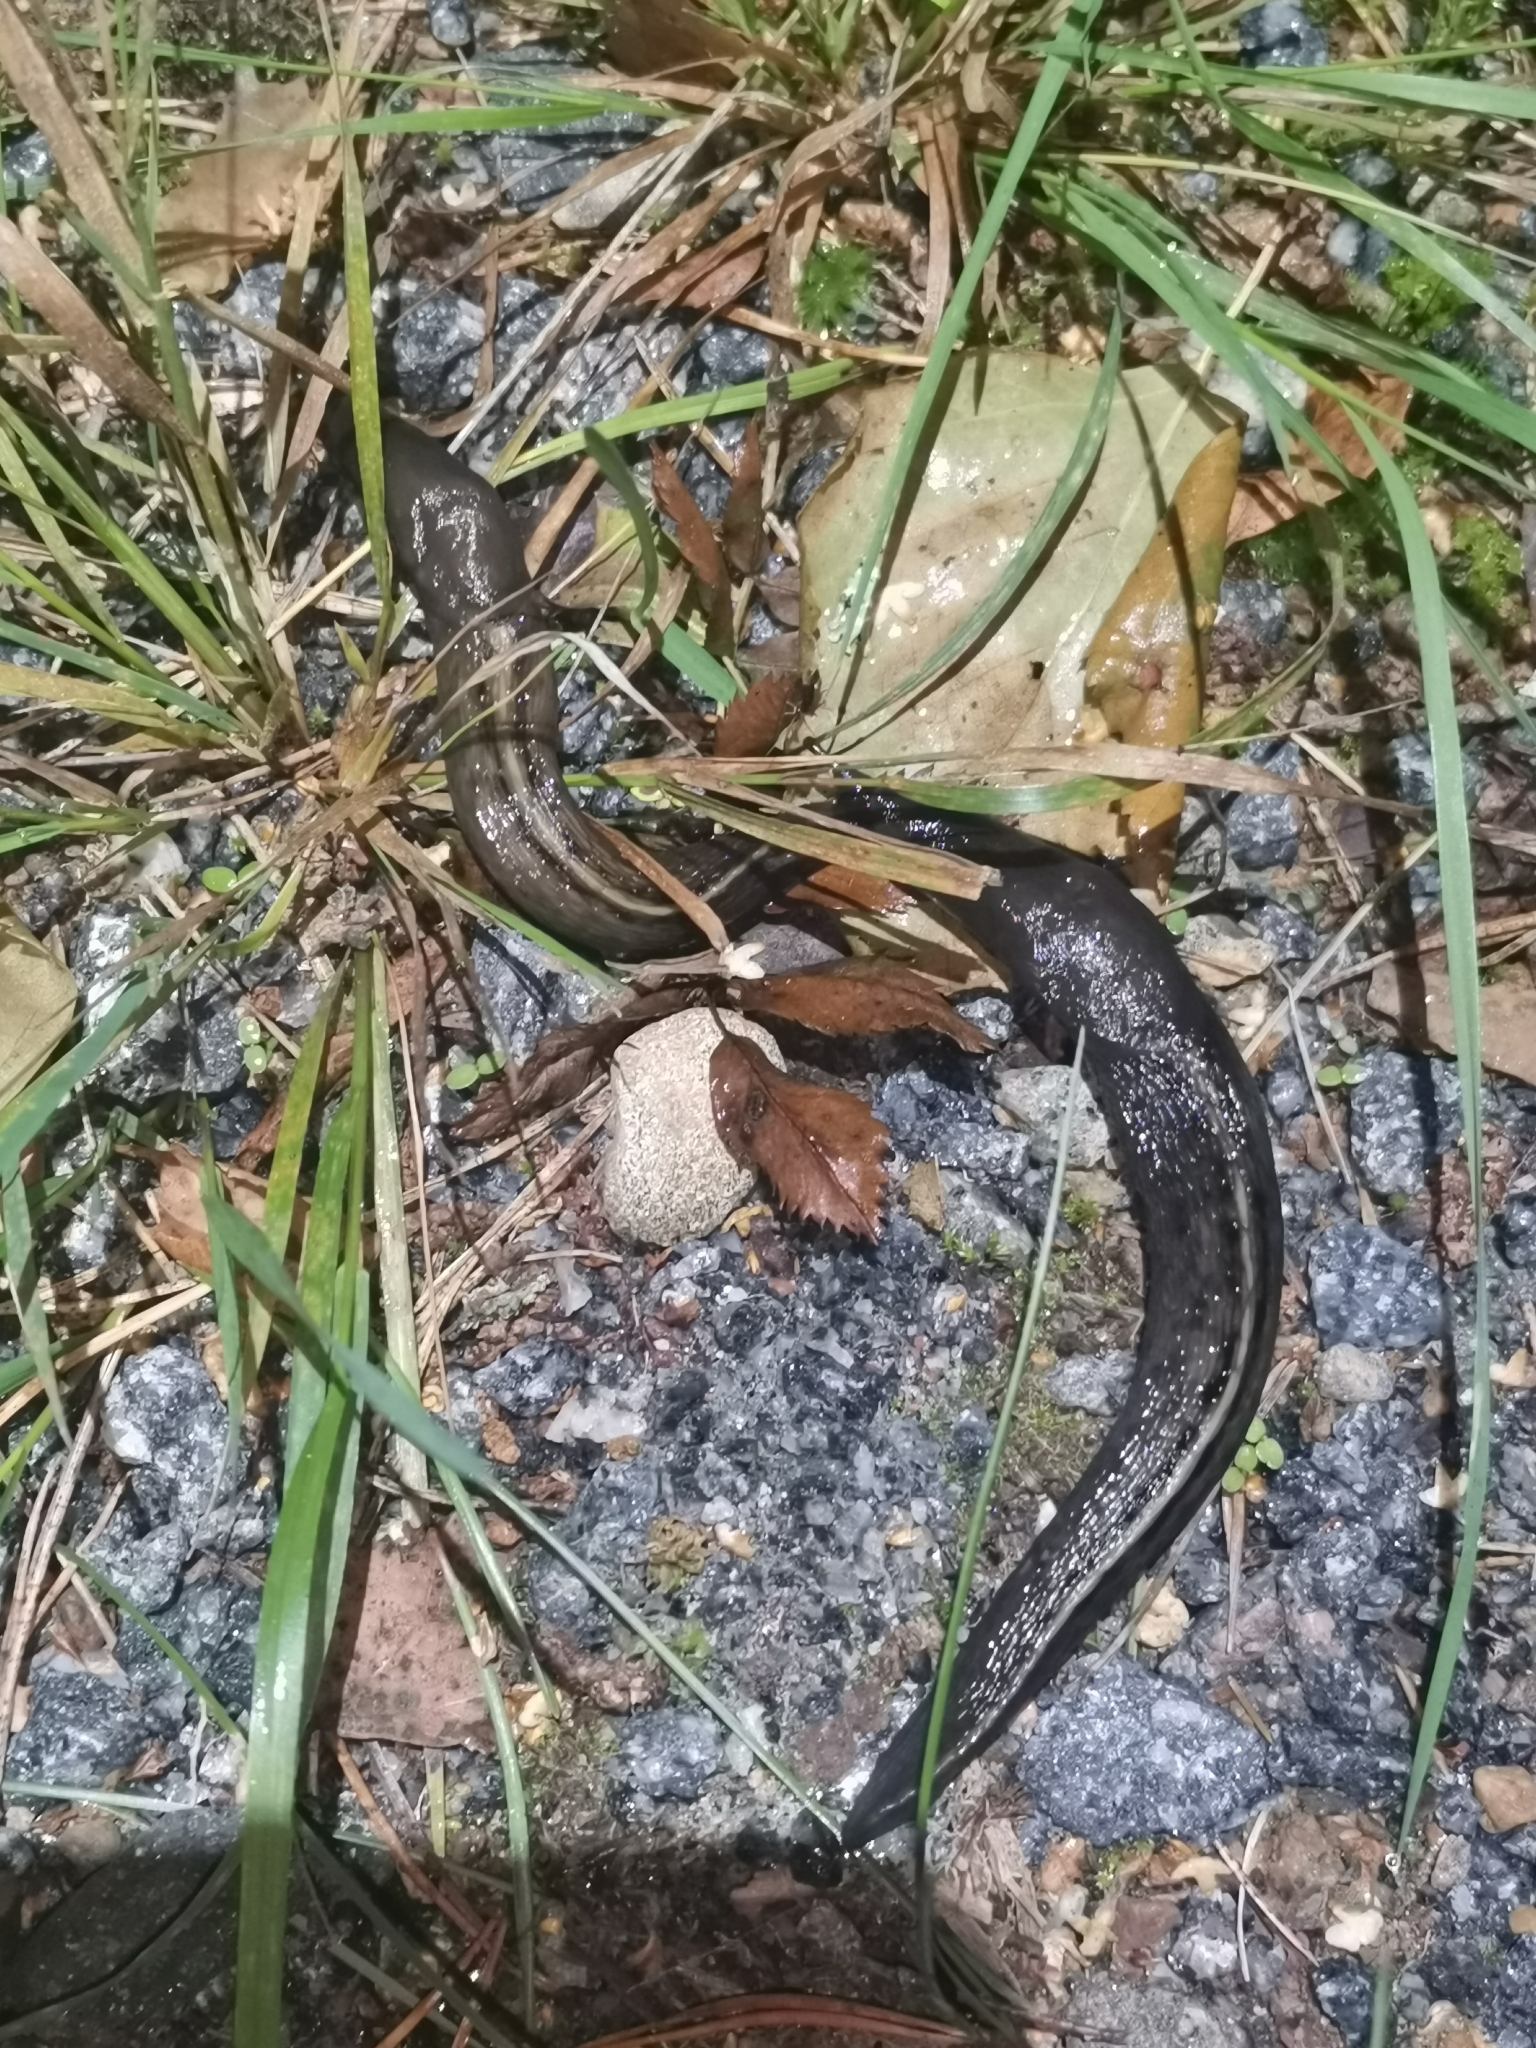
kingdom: Animalia
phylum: Mollusca
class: Gastropoda
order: Stylommatophora
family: Limacidae
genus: Limax
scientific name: Limax cinereoniger
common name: Ash-black slug
